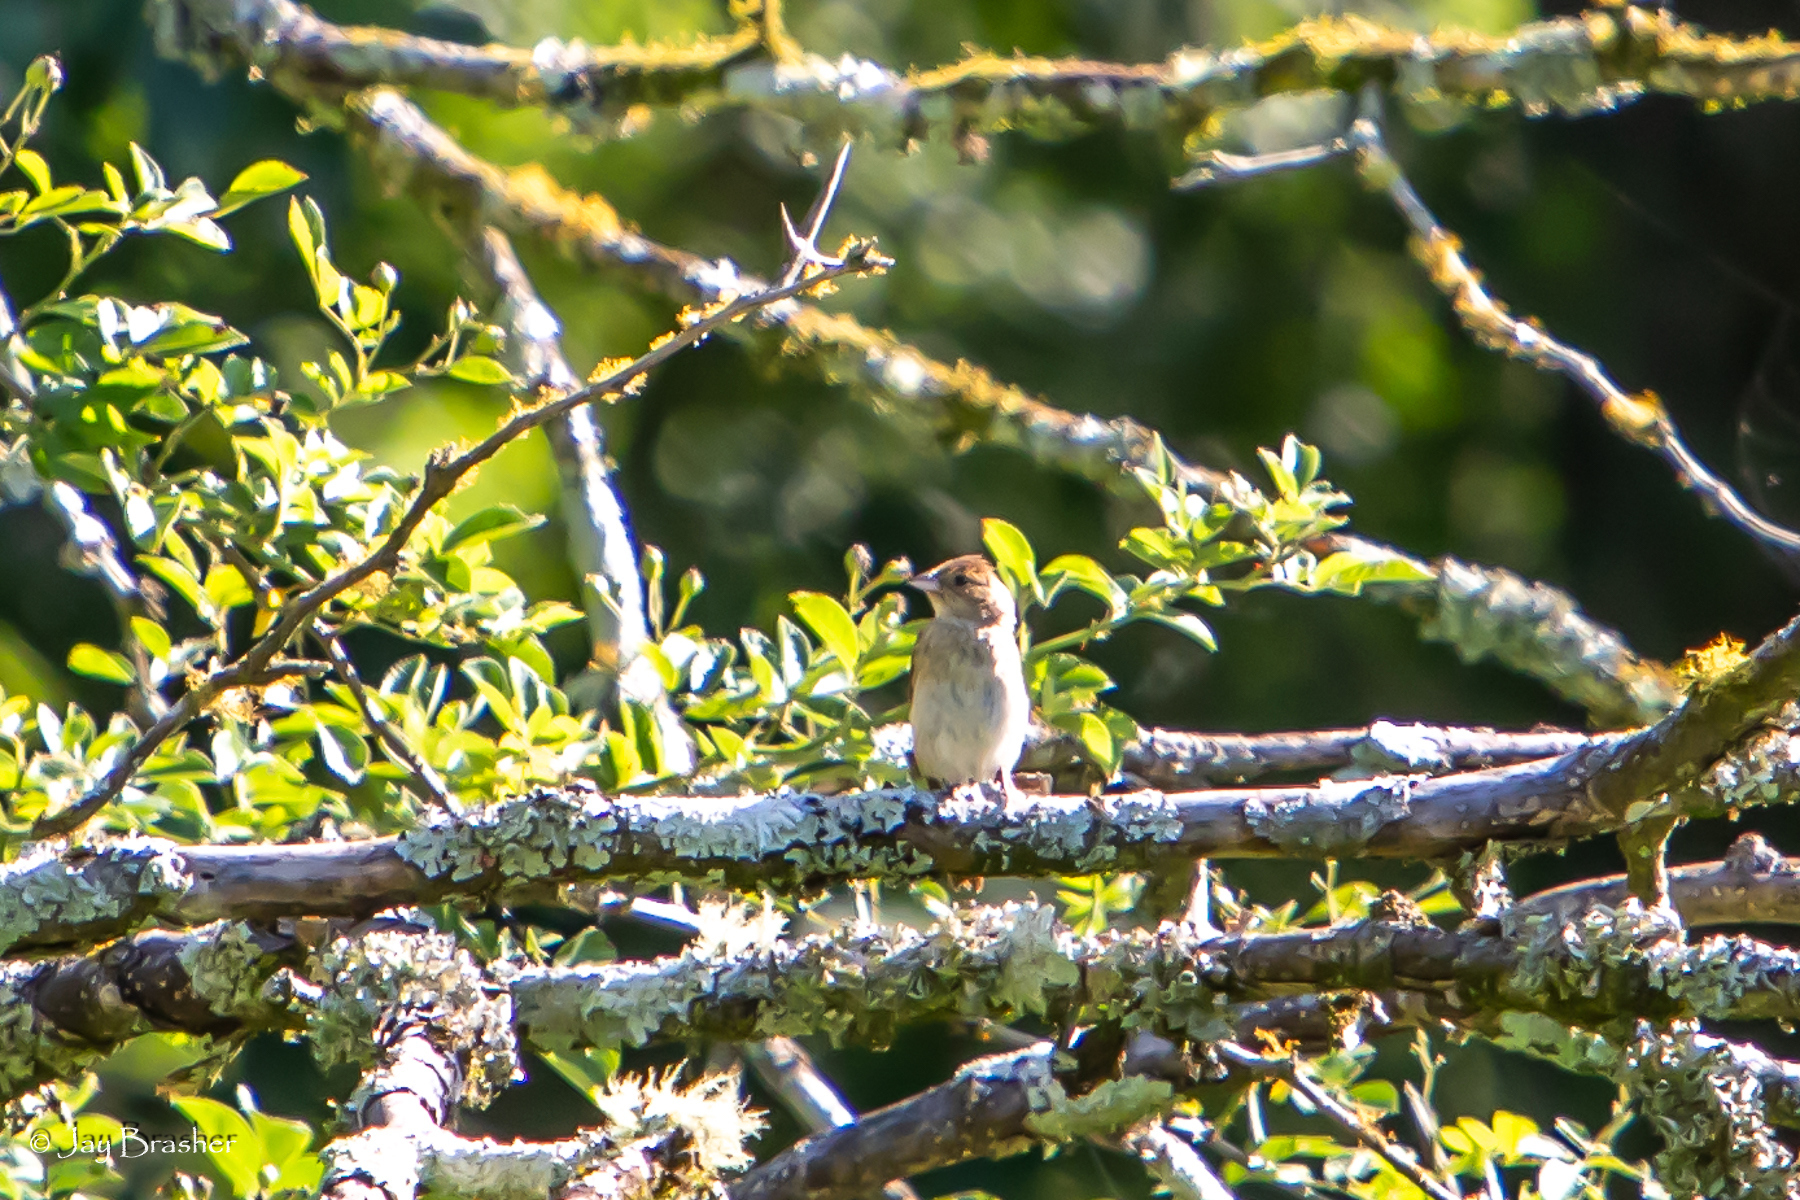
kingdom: Animalia
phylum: Chordata
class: Aves
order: Passeriformes
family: Cardinalidae
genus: Passerina
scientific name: Passerina cyanea
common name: Indigo bunting
